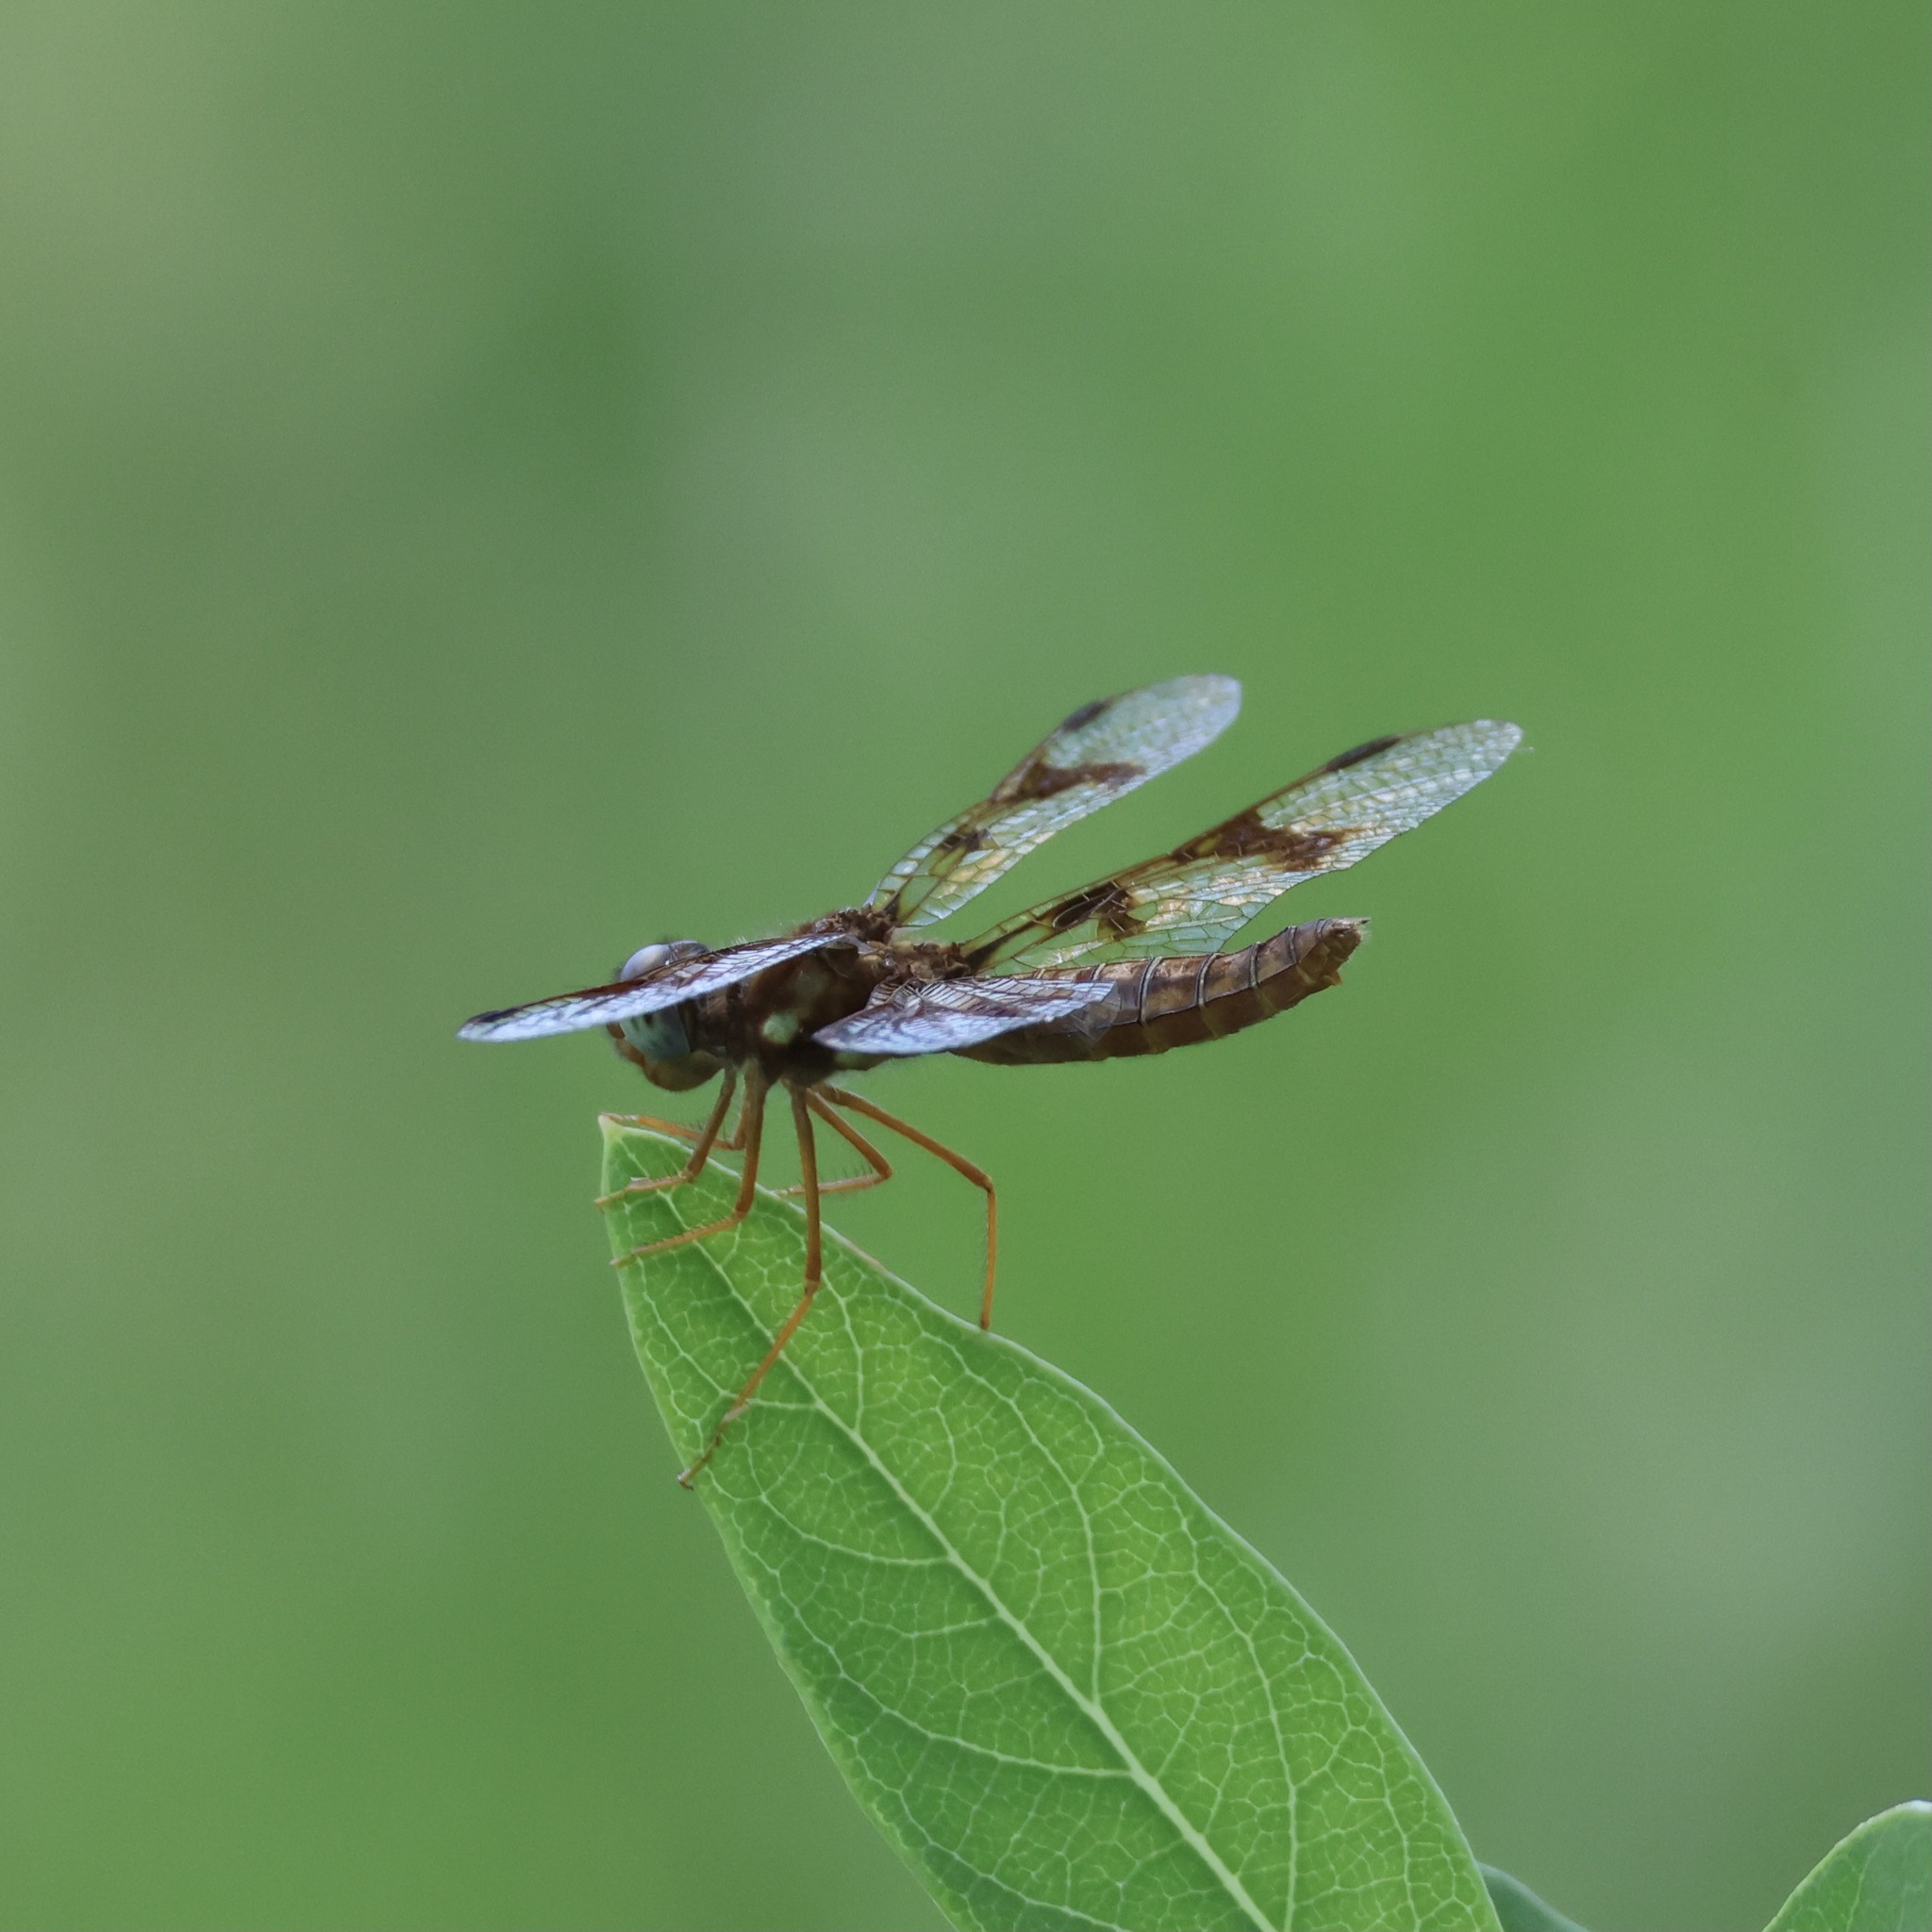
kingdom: Animalia
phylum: Arthropoda
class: Insecta
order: Odonata
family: Libellulidae
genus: Perithemis
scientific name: Perithemis tenera
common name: Eastern amberwing
